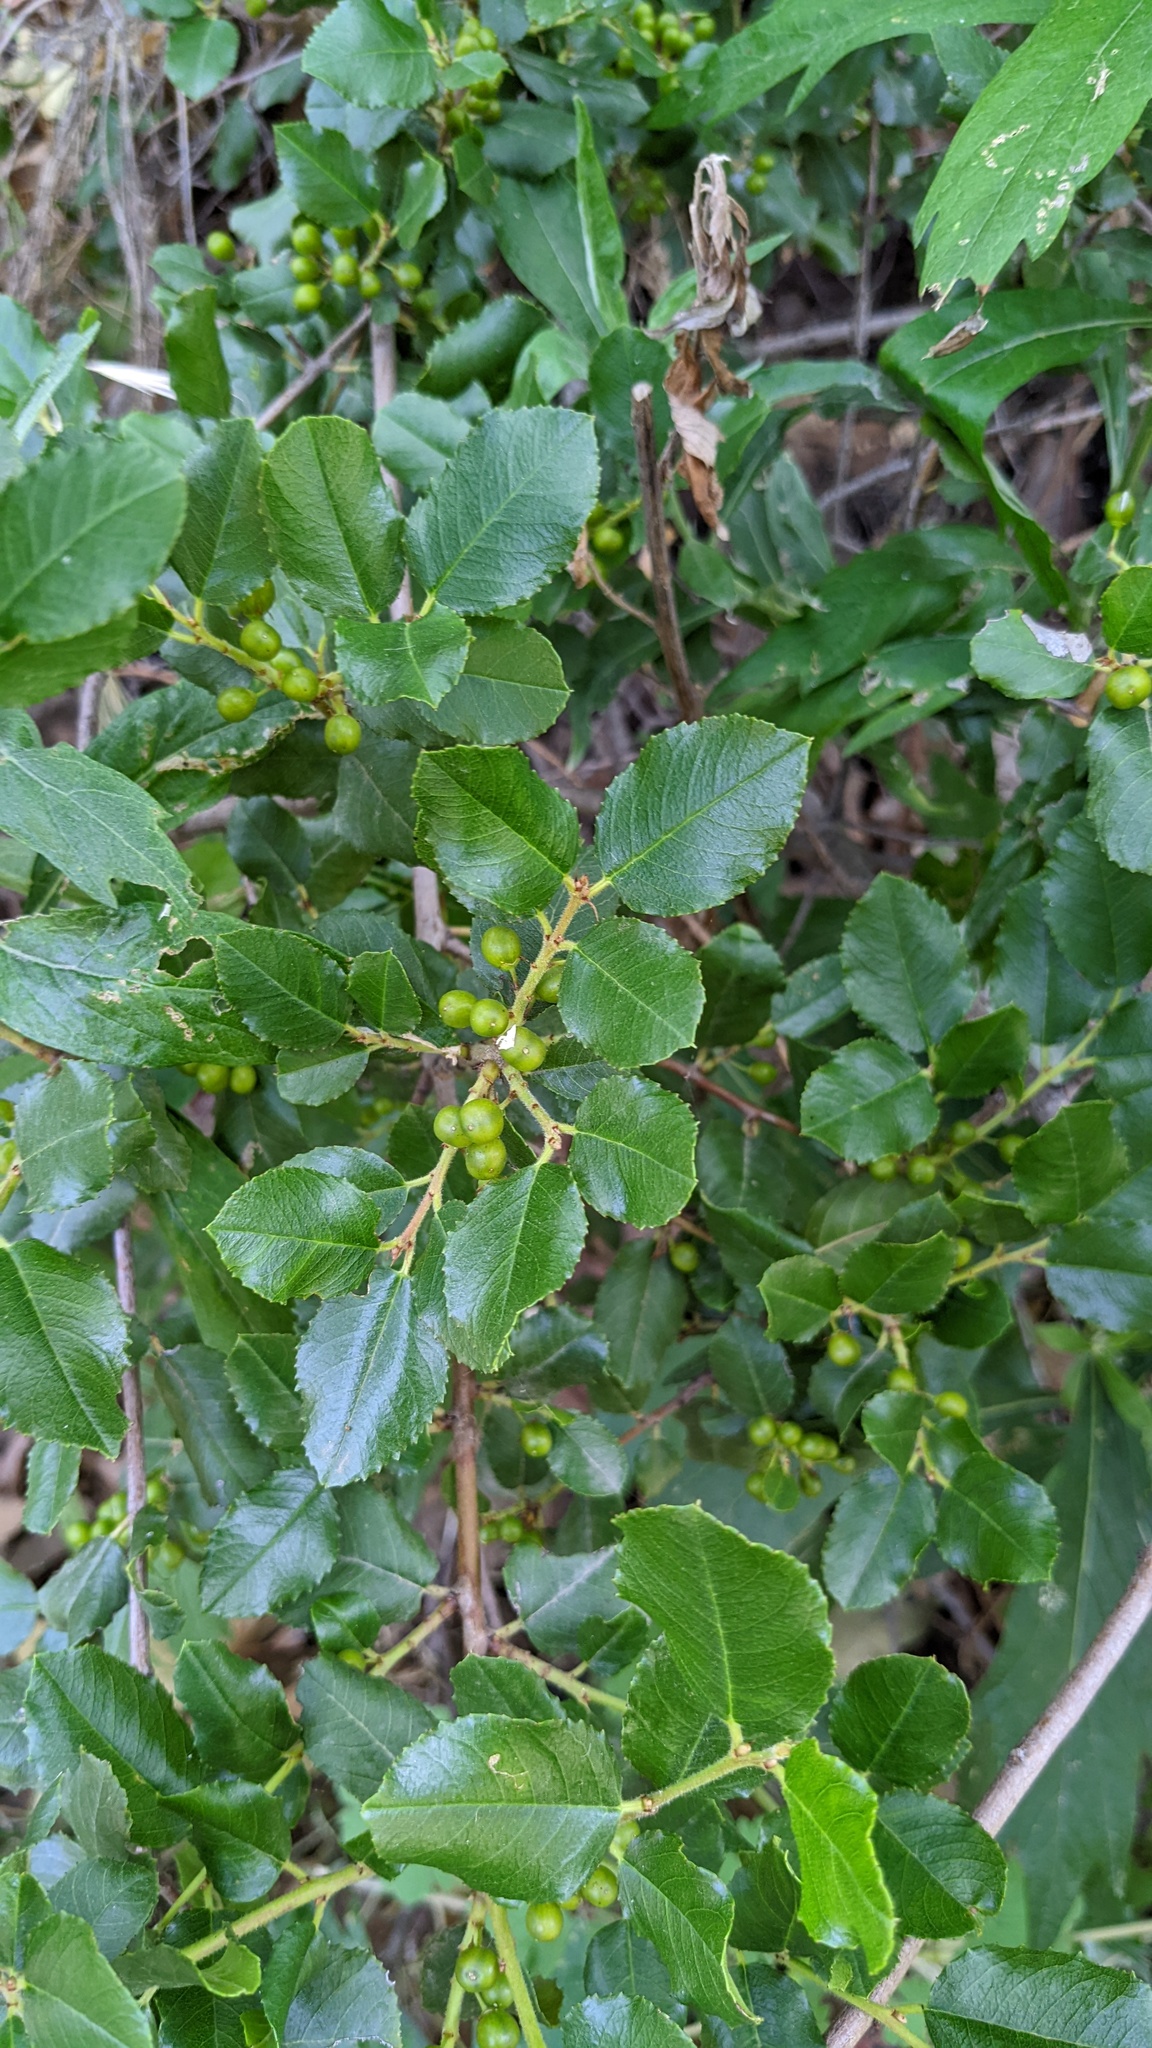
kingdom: Plantae
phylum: Tracheophyta
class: Magnoliopsida
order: Rosales
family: Rhamnaceae
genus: Endotropis
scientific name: Endotropis crocea
